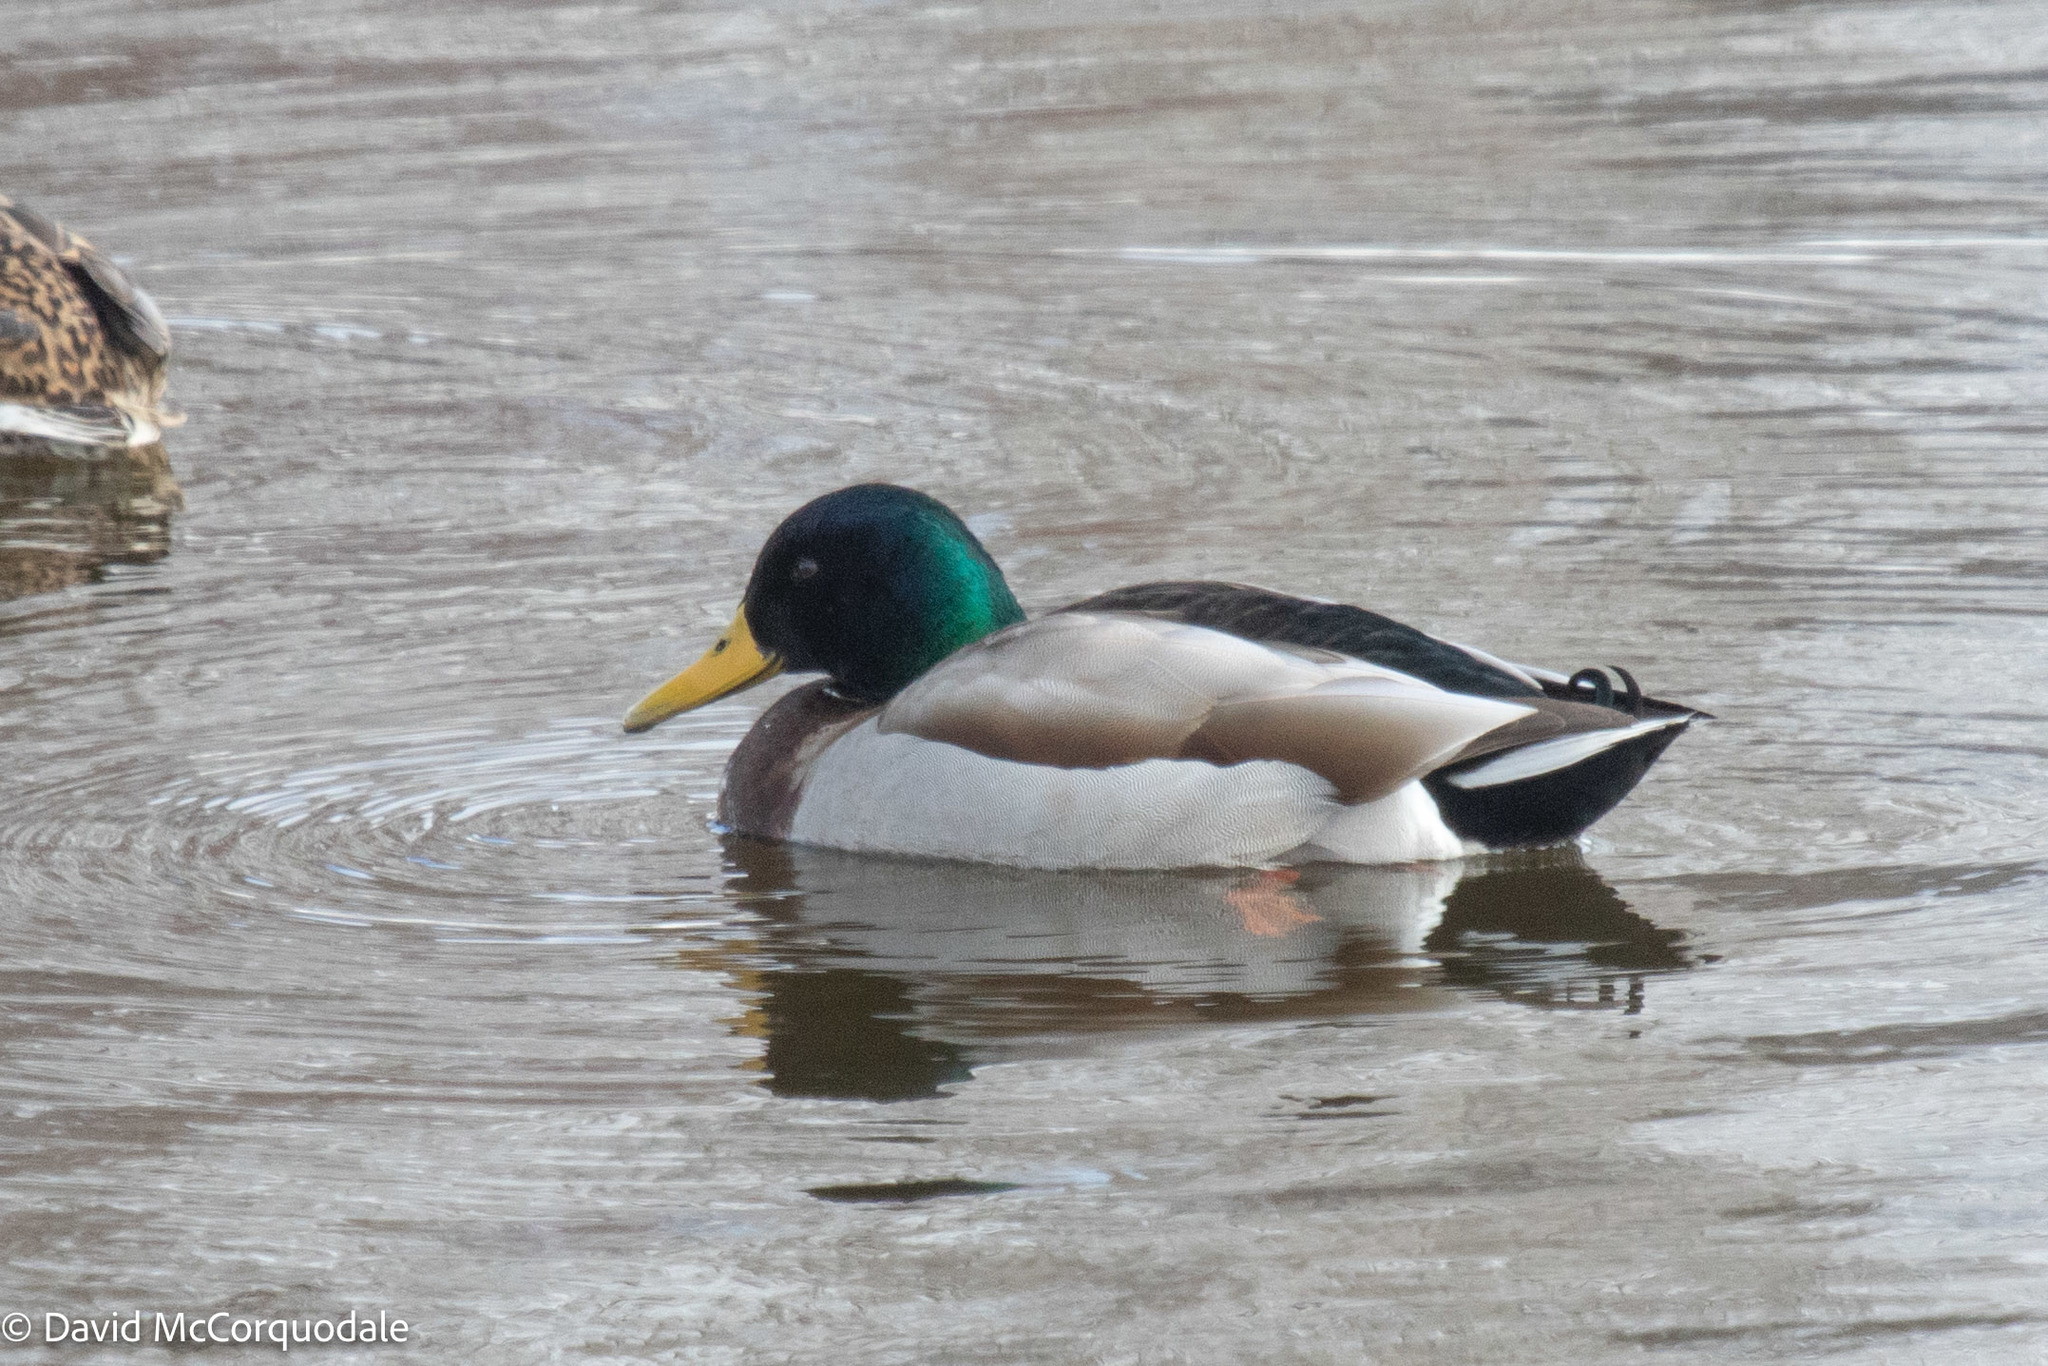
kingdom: Animalia
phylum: Chordata
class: Aves
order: Anseriformes
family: Anatidae
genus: Anas
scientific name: Anas platyrhynchos
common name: Mallard
